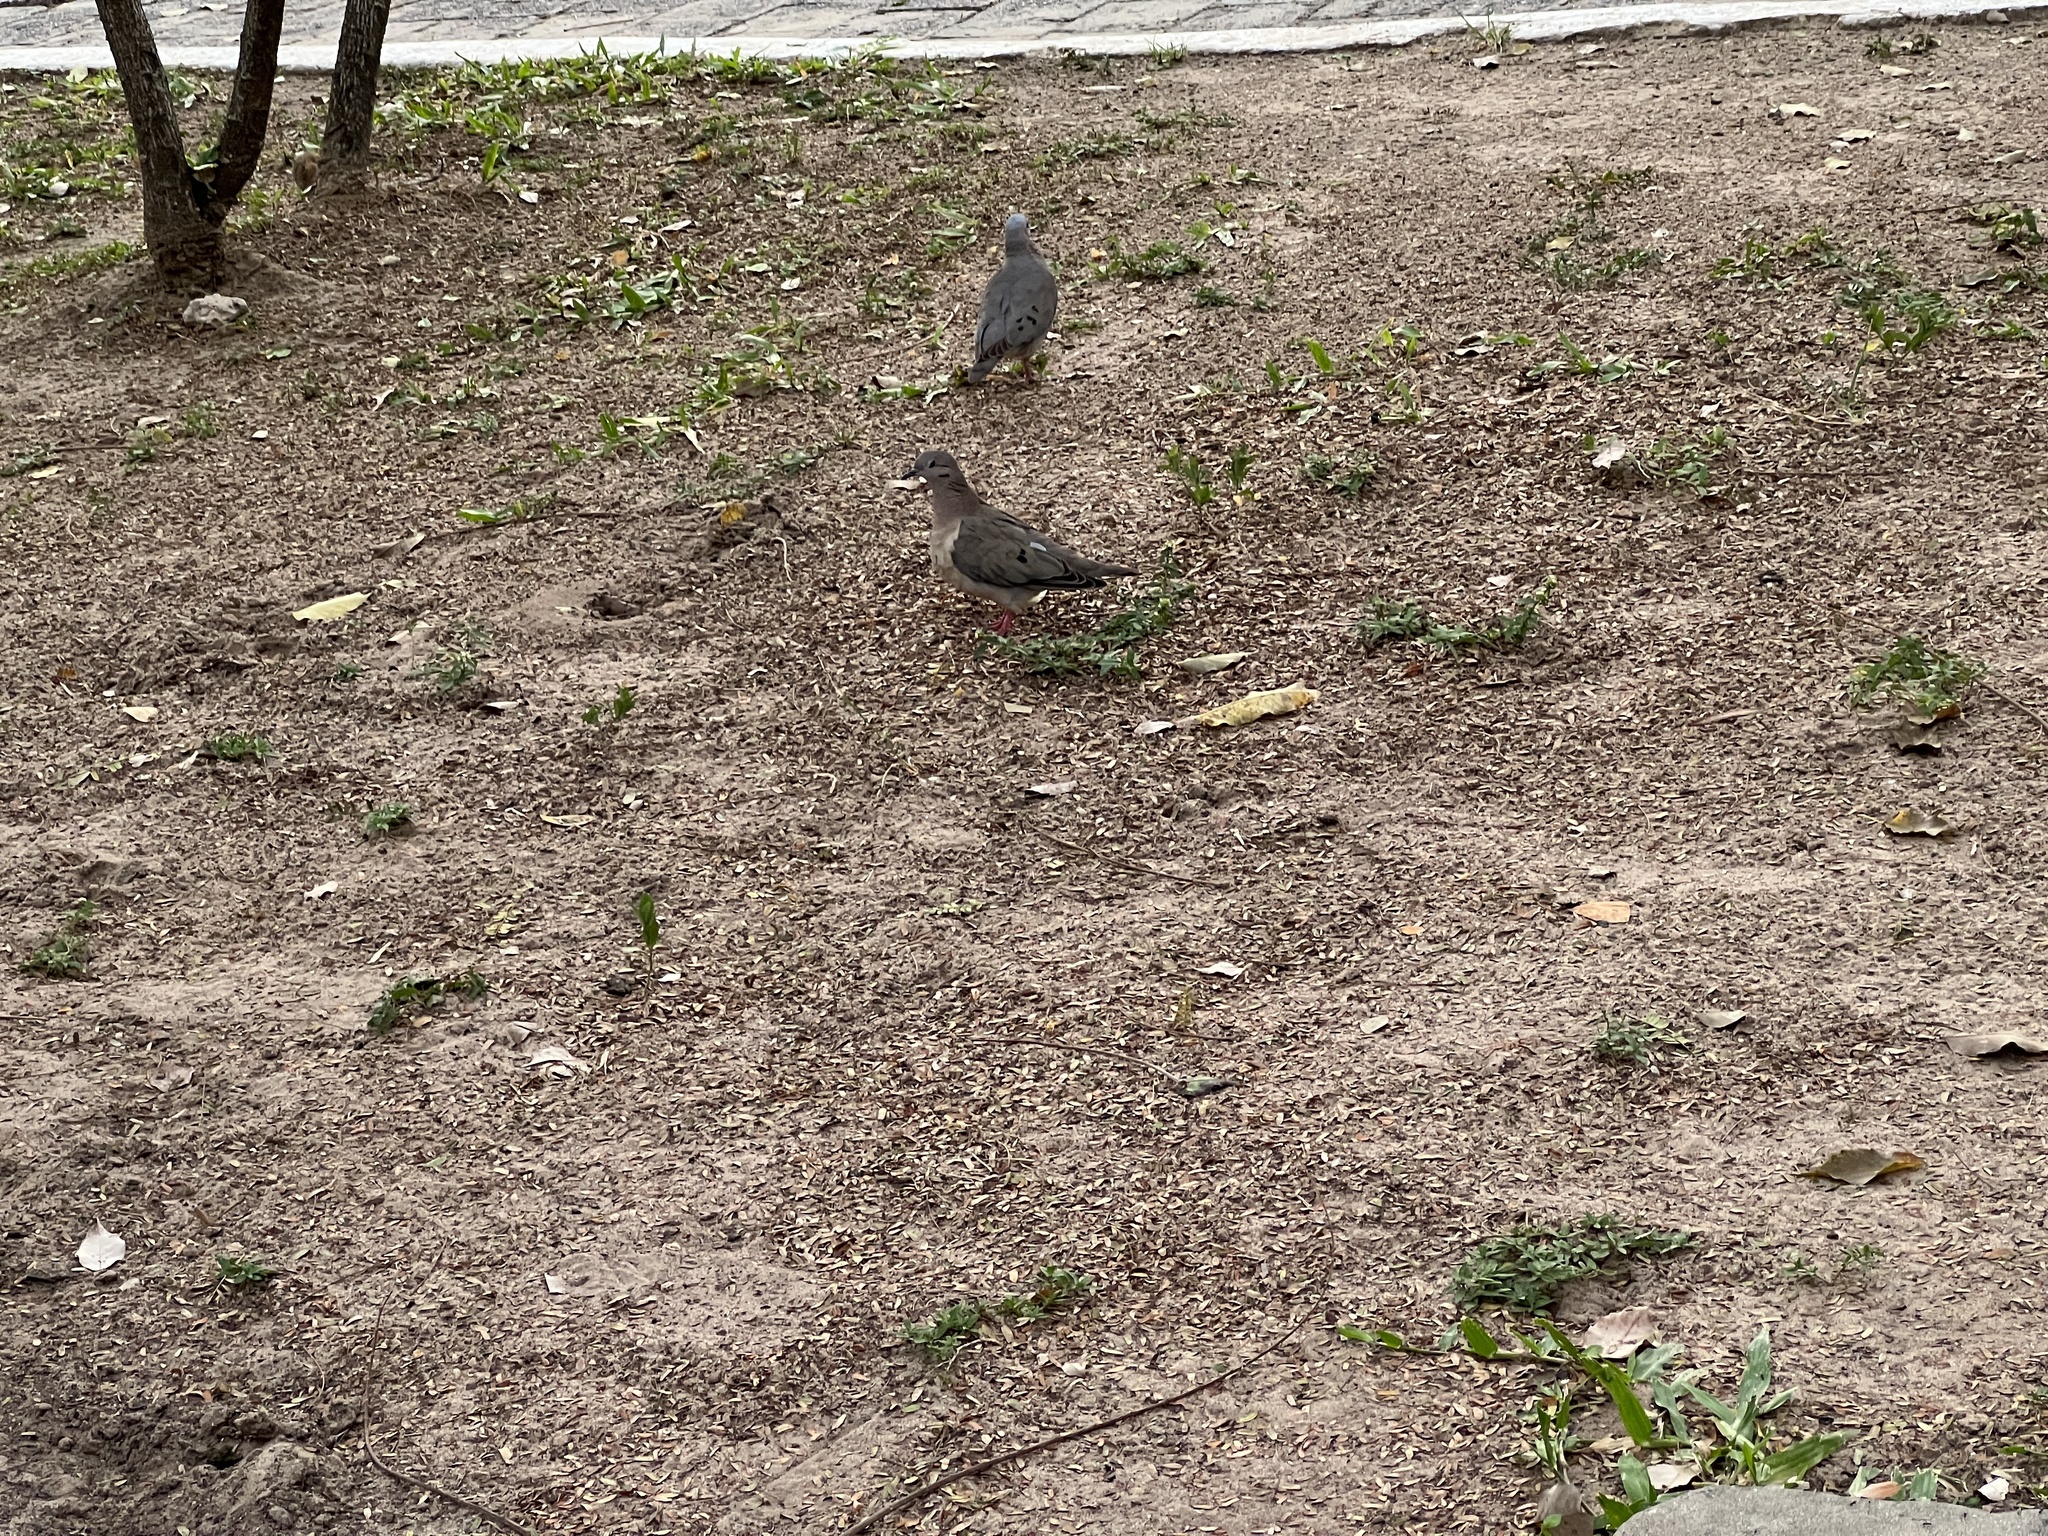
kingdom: Animalia
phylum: Chordata
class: Aves
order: Columbiformes
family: Columbidae
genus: Zenaida
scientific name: Zenaida auriculata
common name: Eared dove
